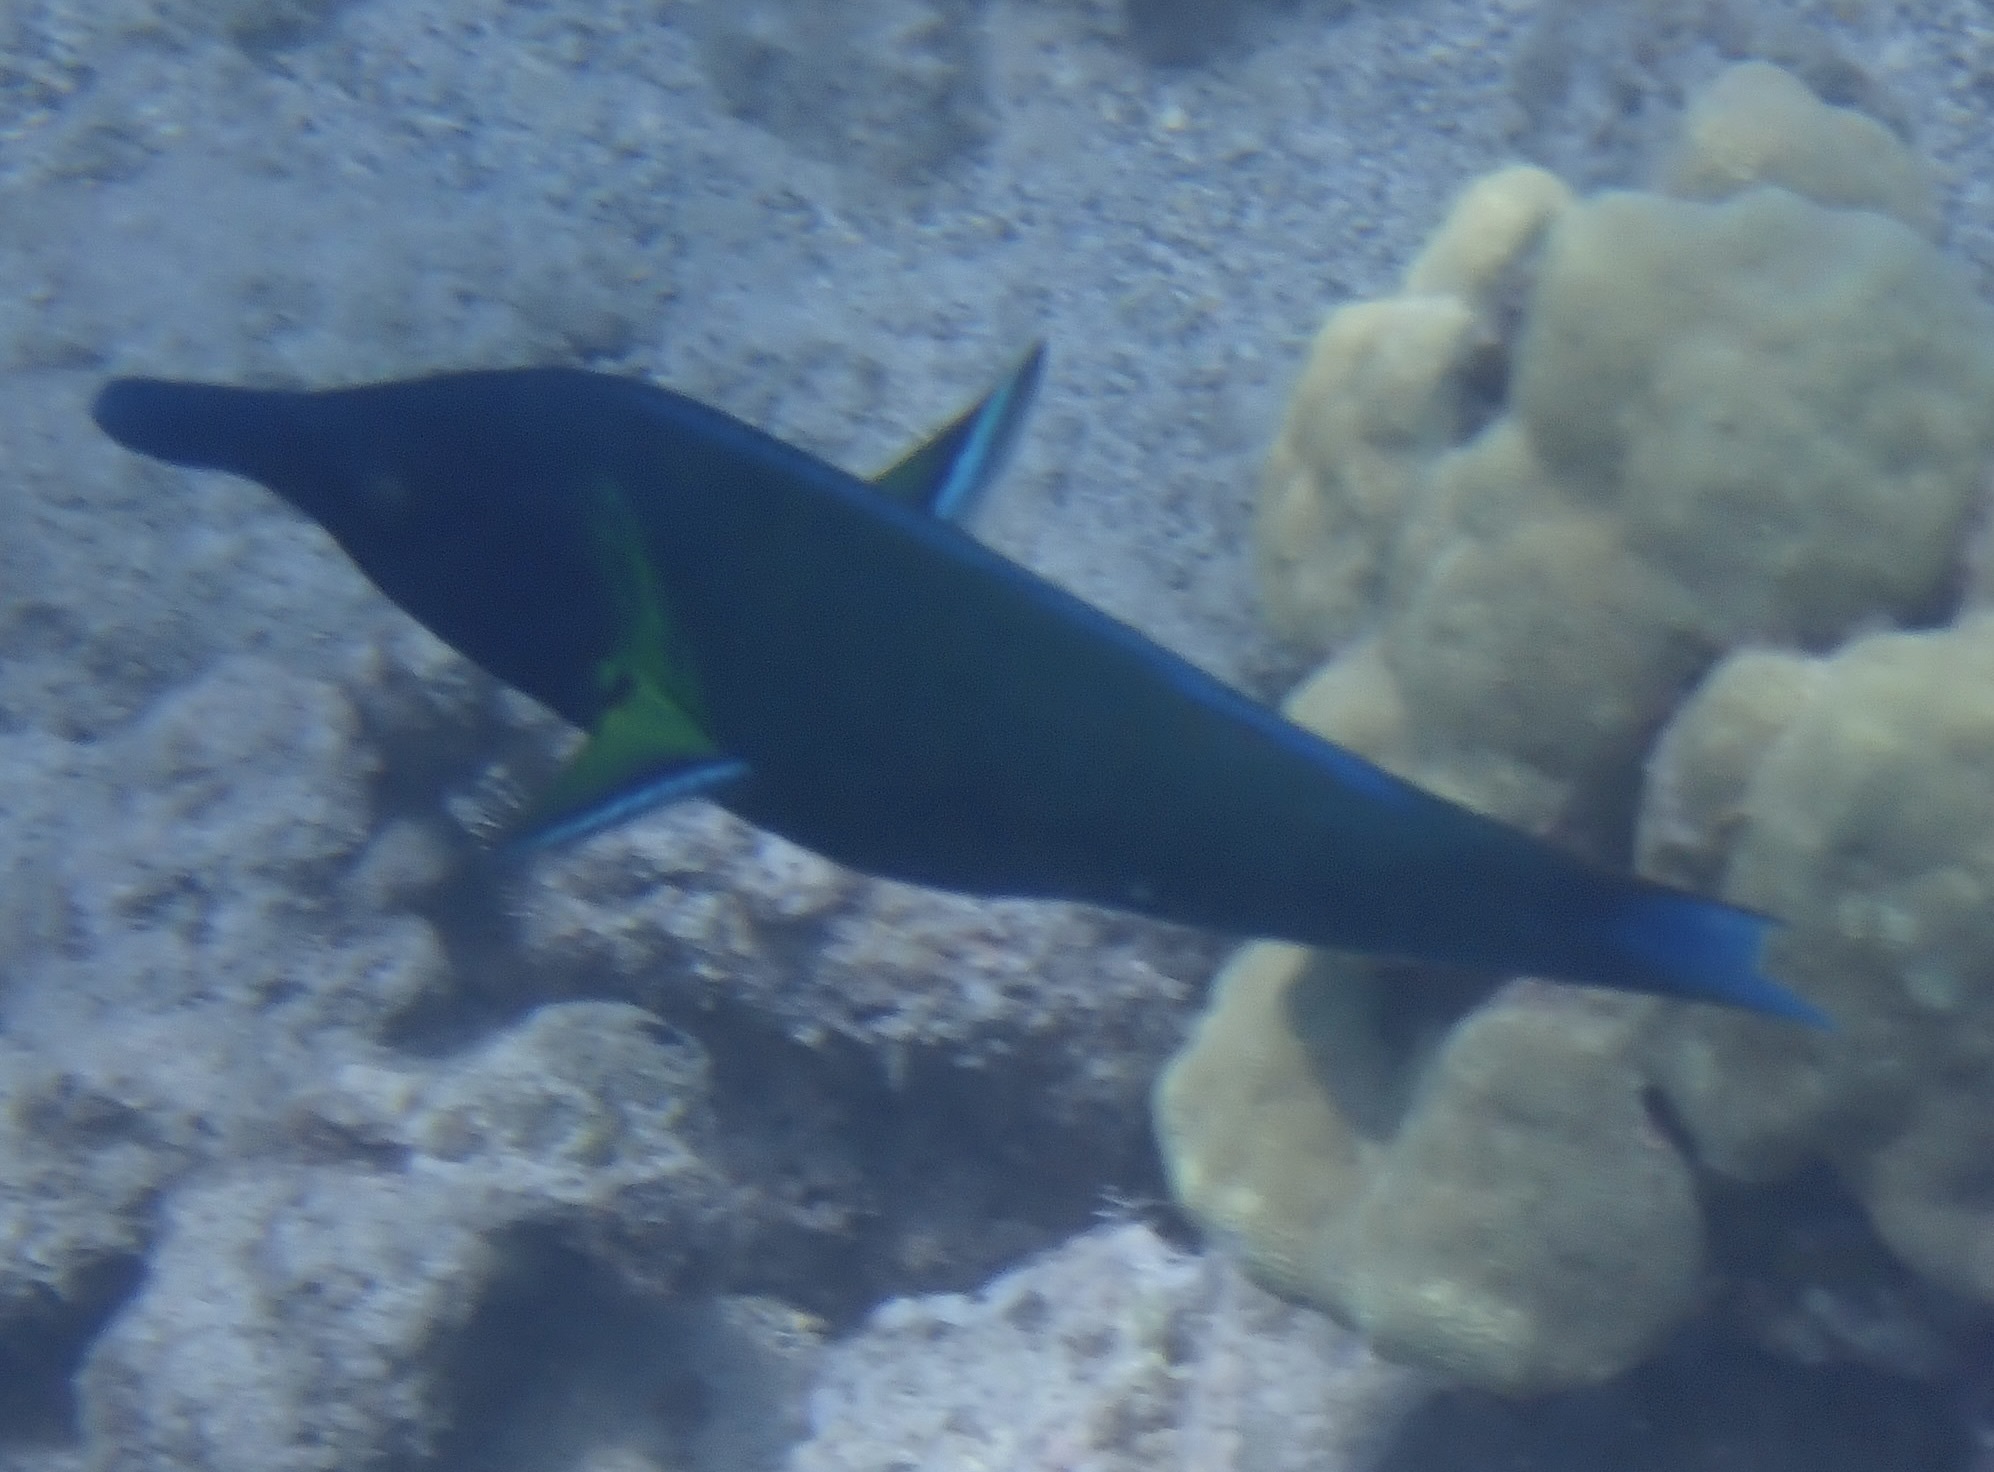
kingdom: Animalia
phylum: Chordata
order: Perciformes
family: Labridae
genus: Gomphosus
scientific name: Gomphosus varius
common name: Bird wrasse
